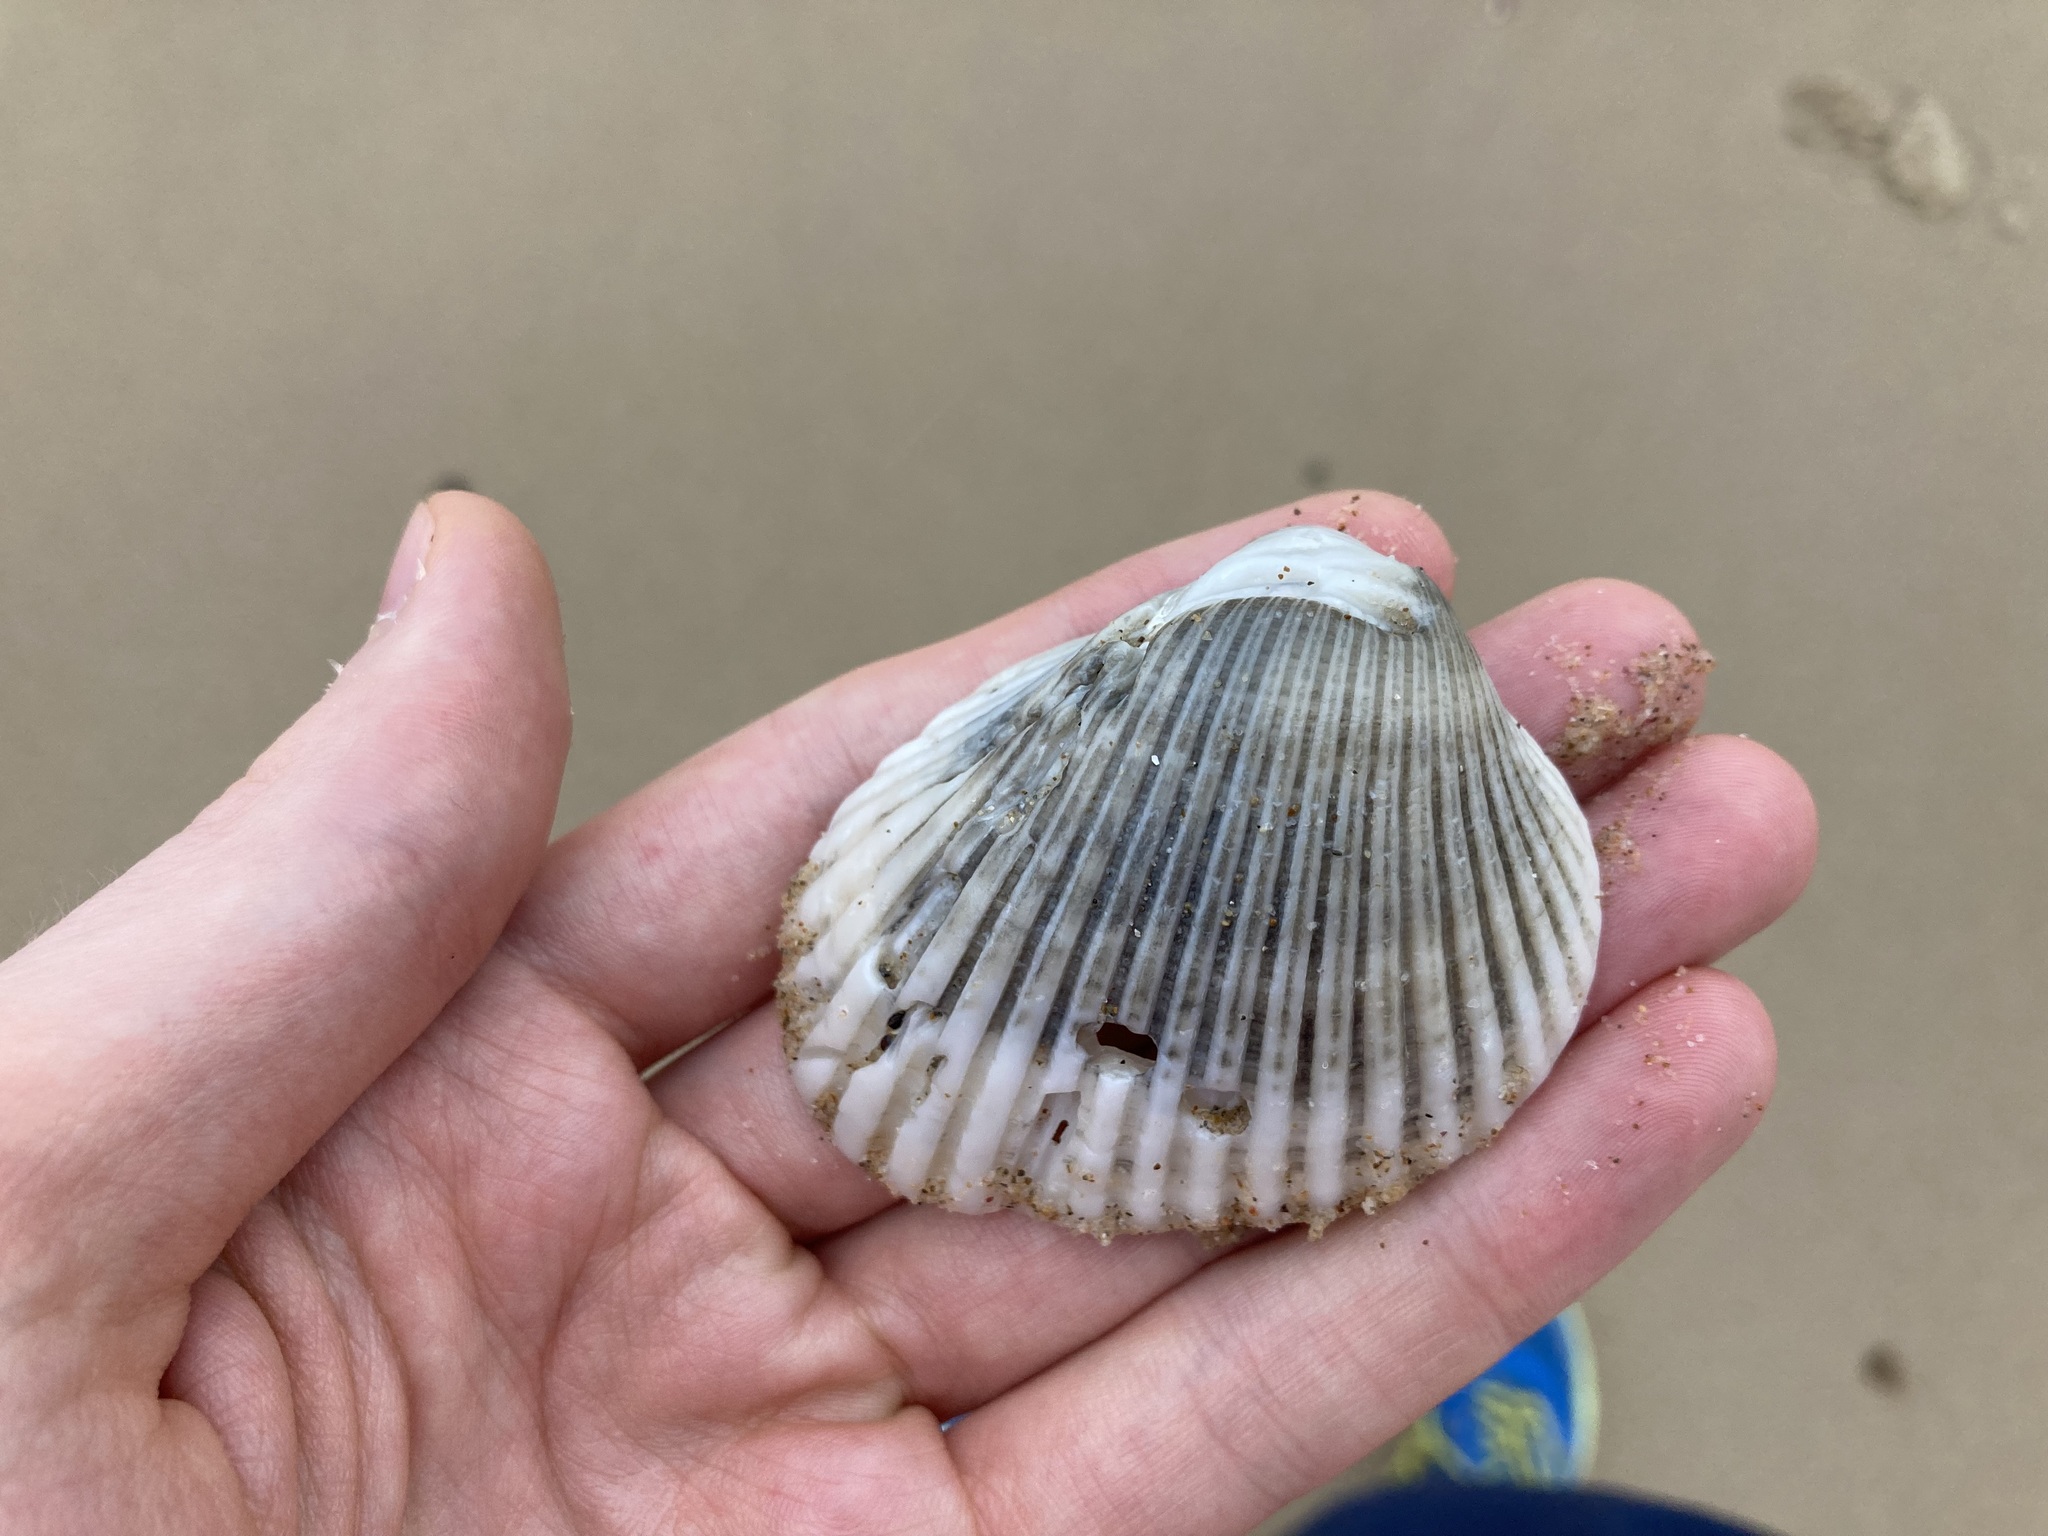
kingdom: Animalia
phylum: Mollusca
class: Bivalvia
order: Arcida
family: Arcidae
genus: Anadara
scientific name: Anadara trapezia
